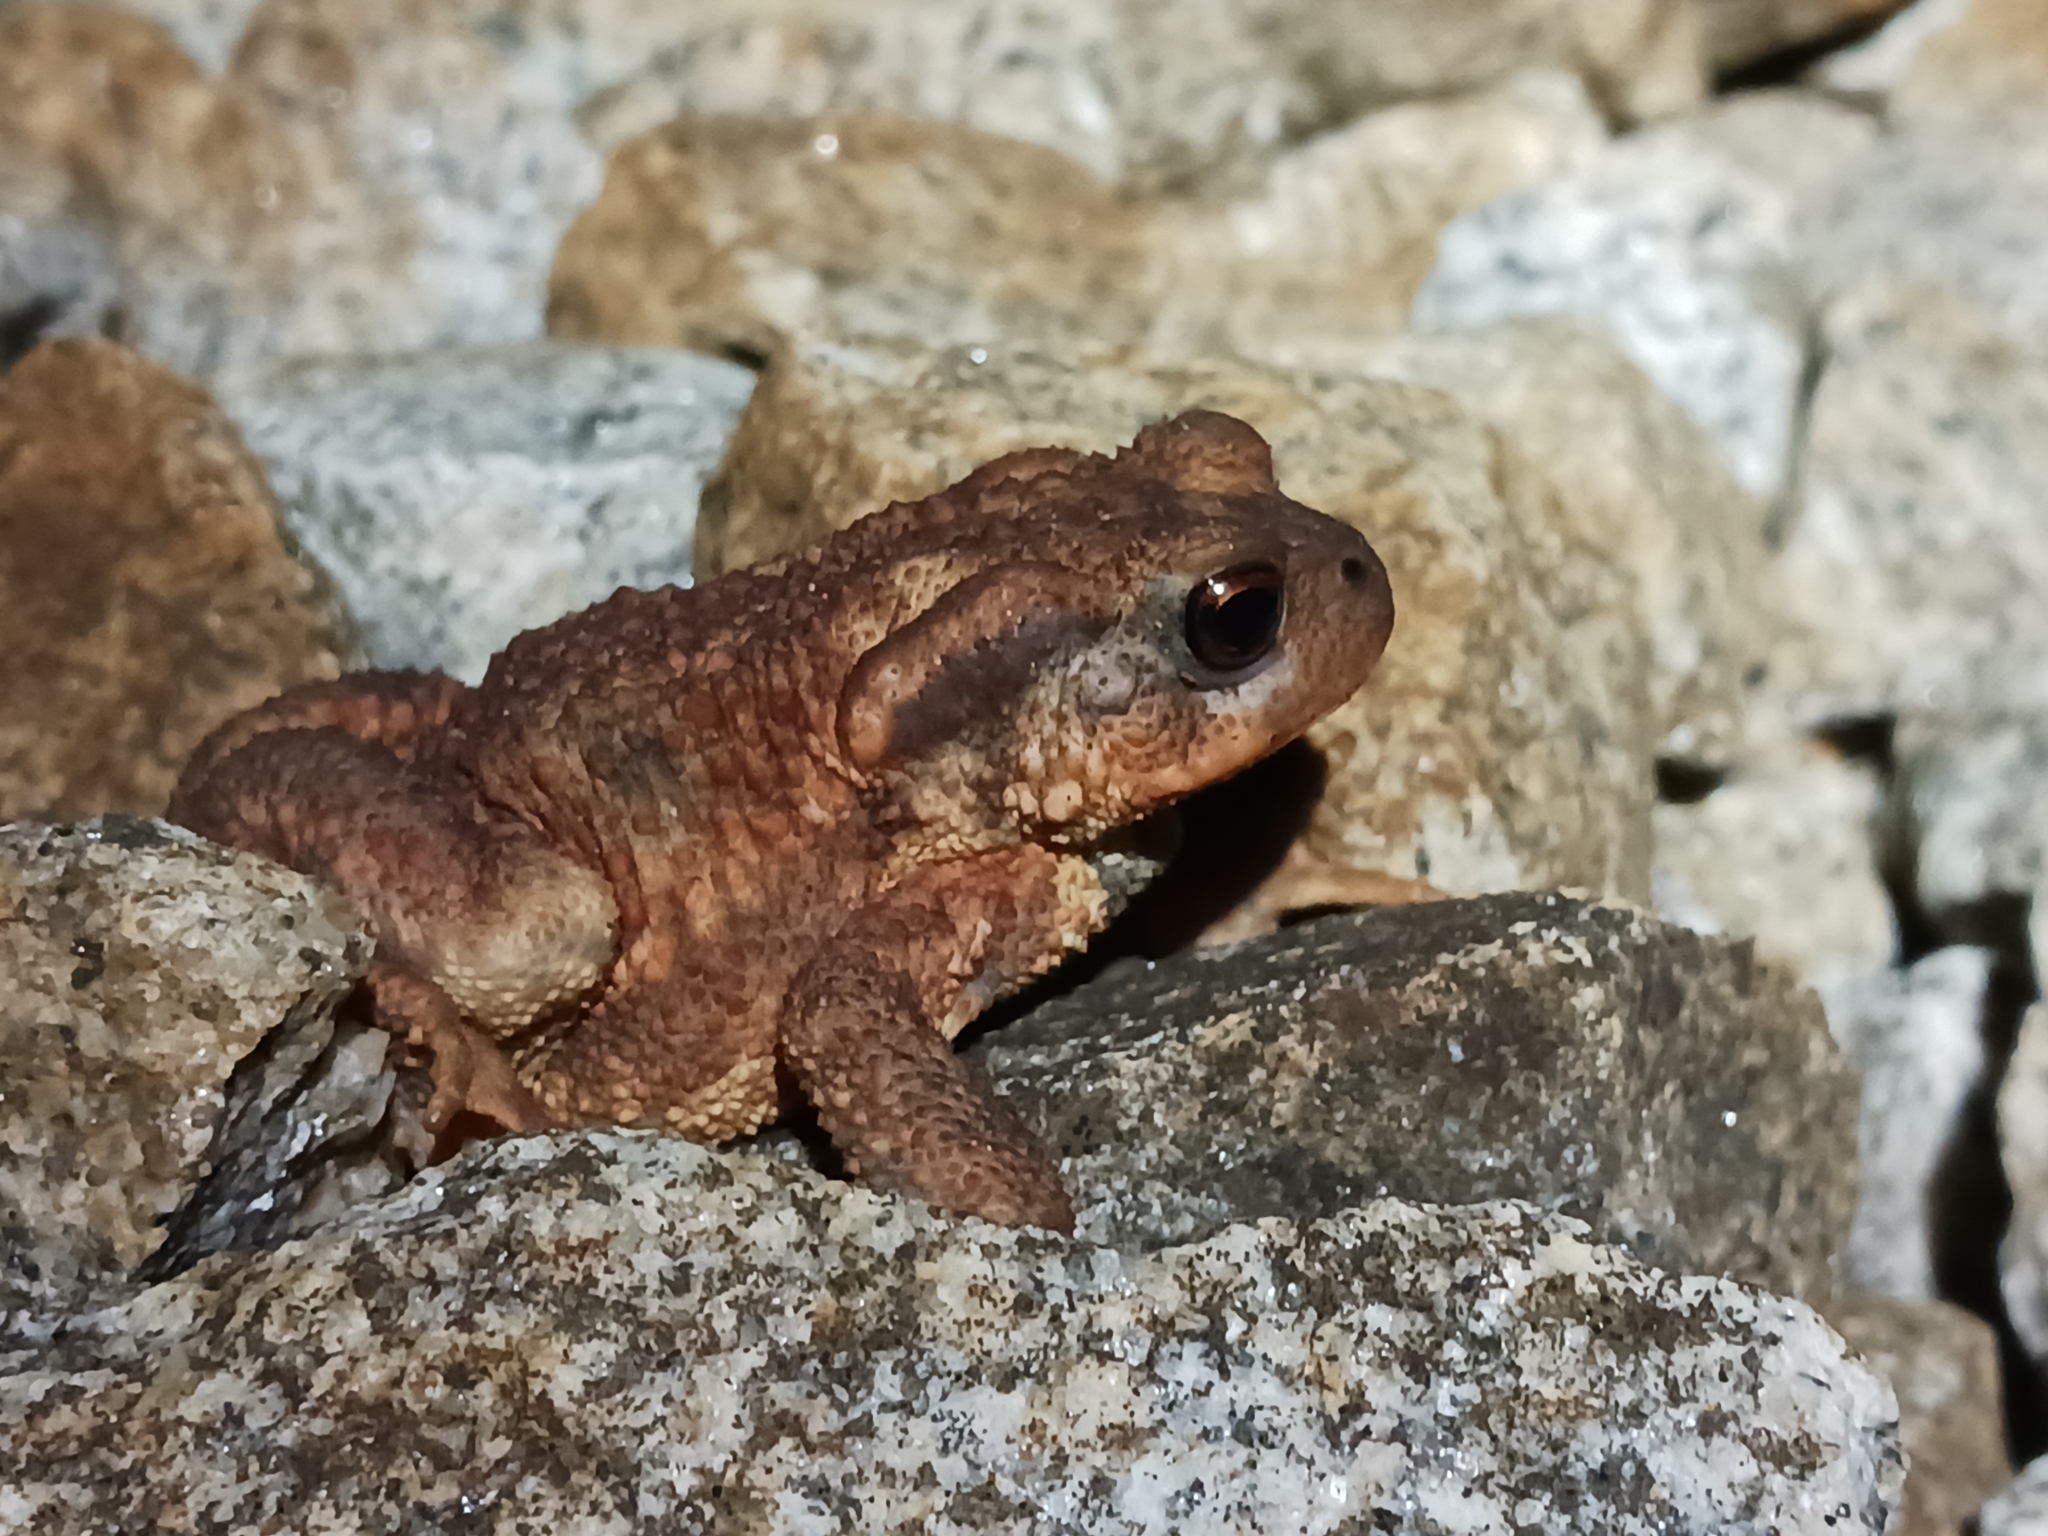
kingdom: Animalia
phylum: Chordata
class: Amphibia
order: Anura
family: Bufonidae
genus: Bufo
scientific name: Bufo spinosus
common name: Western common toad
